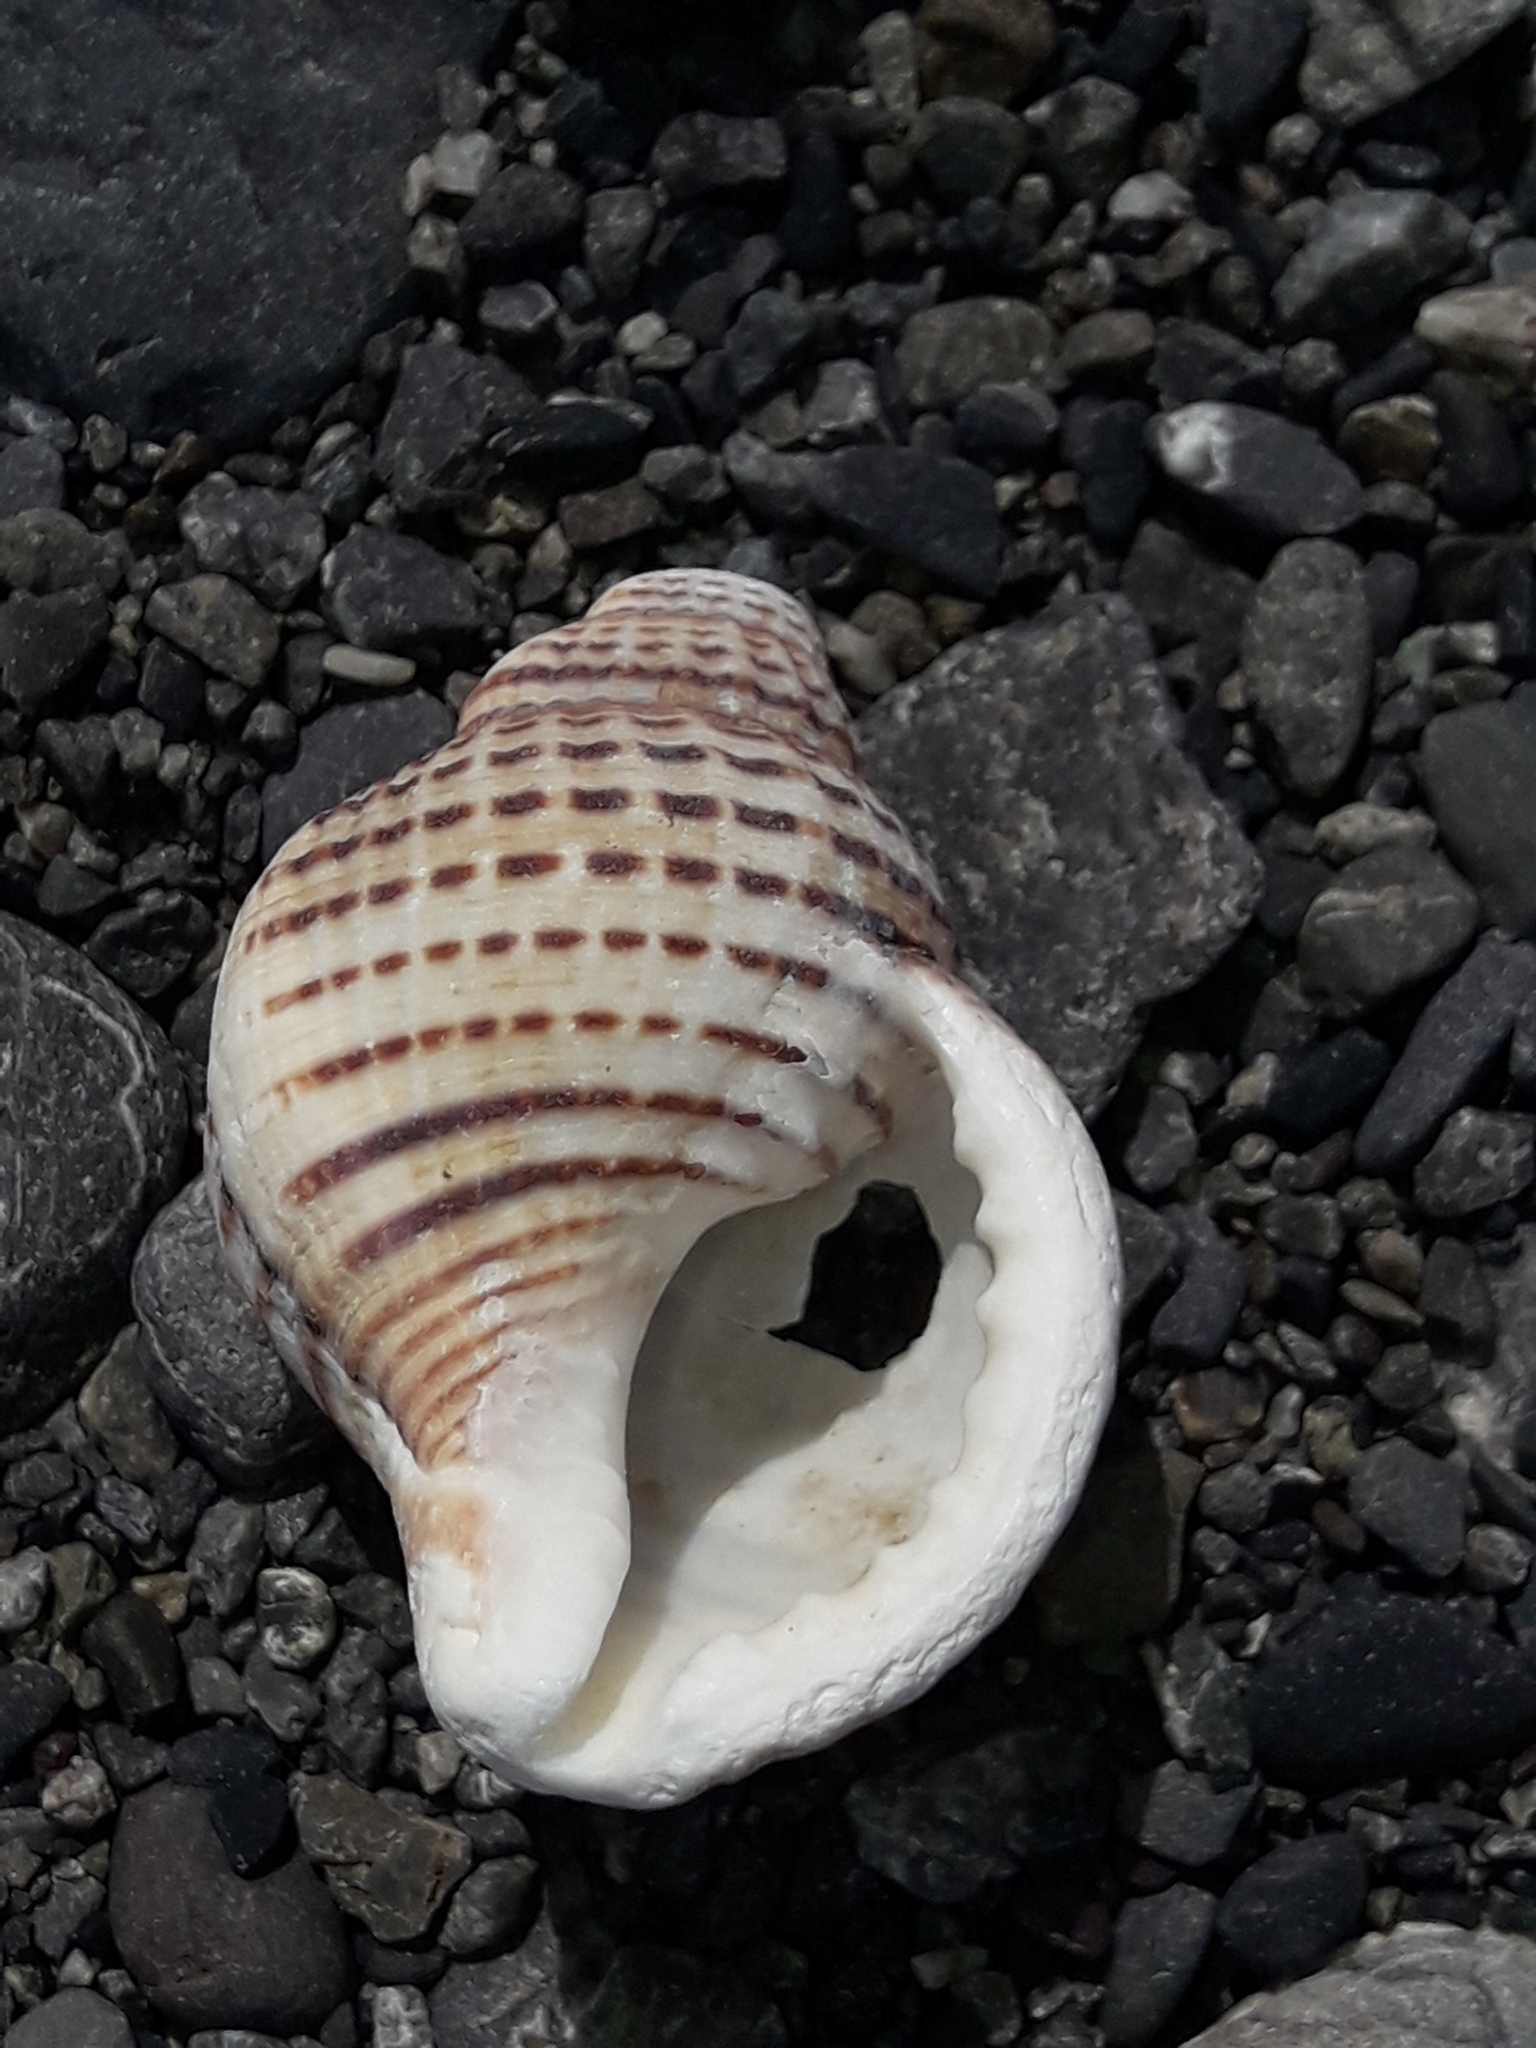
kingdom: Animalia
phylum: Mollusca
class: Gastropoda
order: Littorinimorpha
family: Cymatiidae
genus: Argobuccinum
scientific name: Argobuccinum pustulosum
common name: Pustular triton
